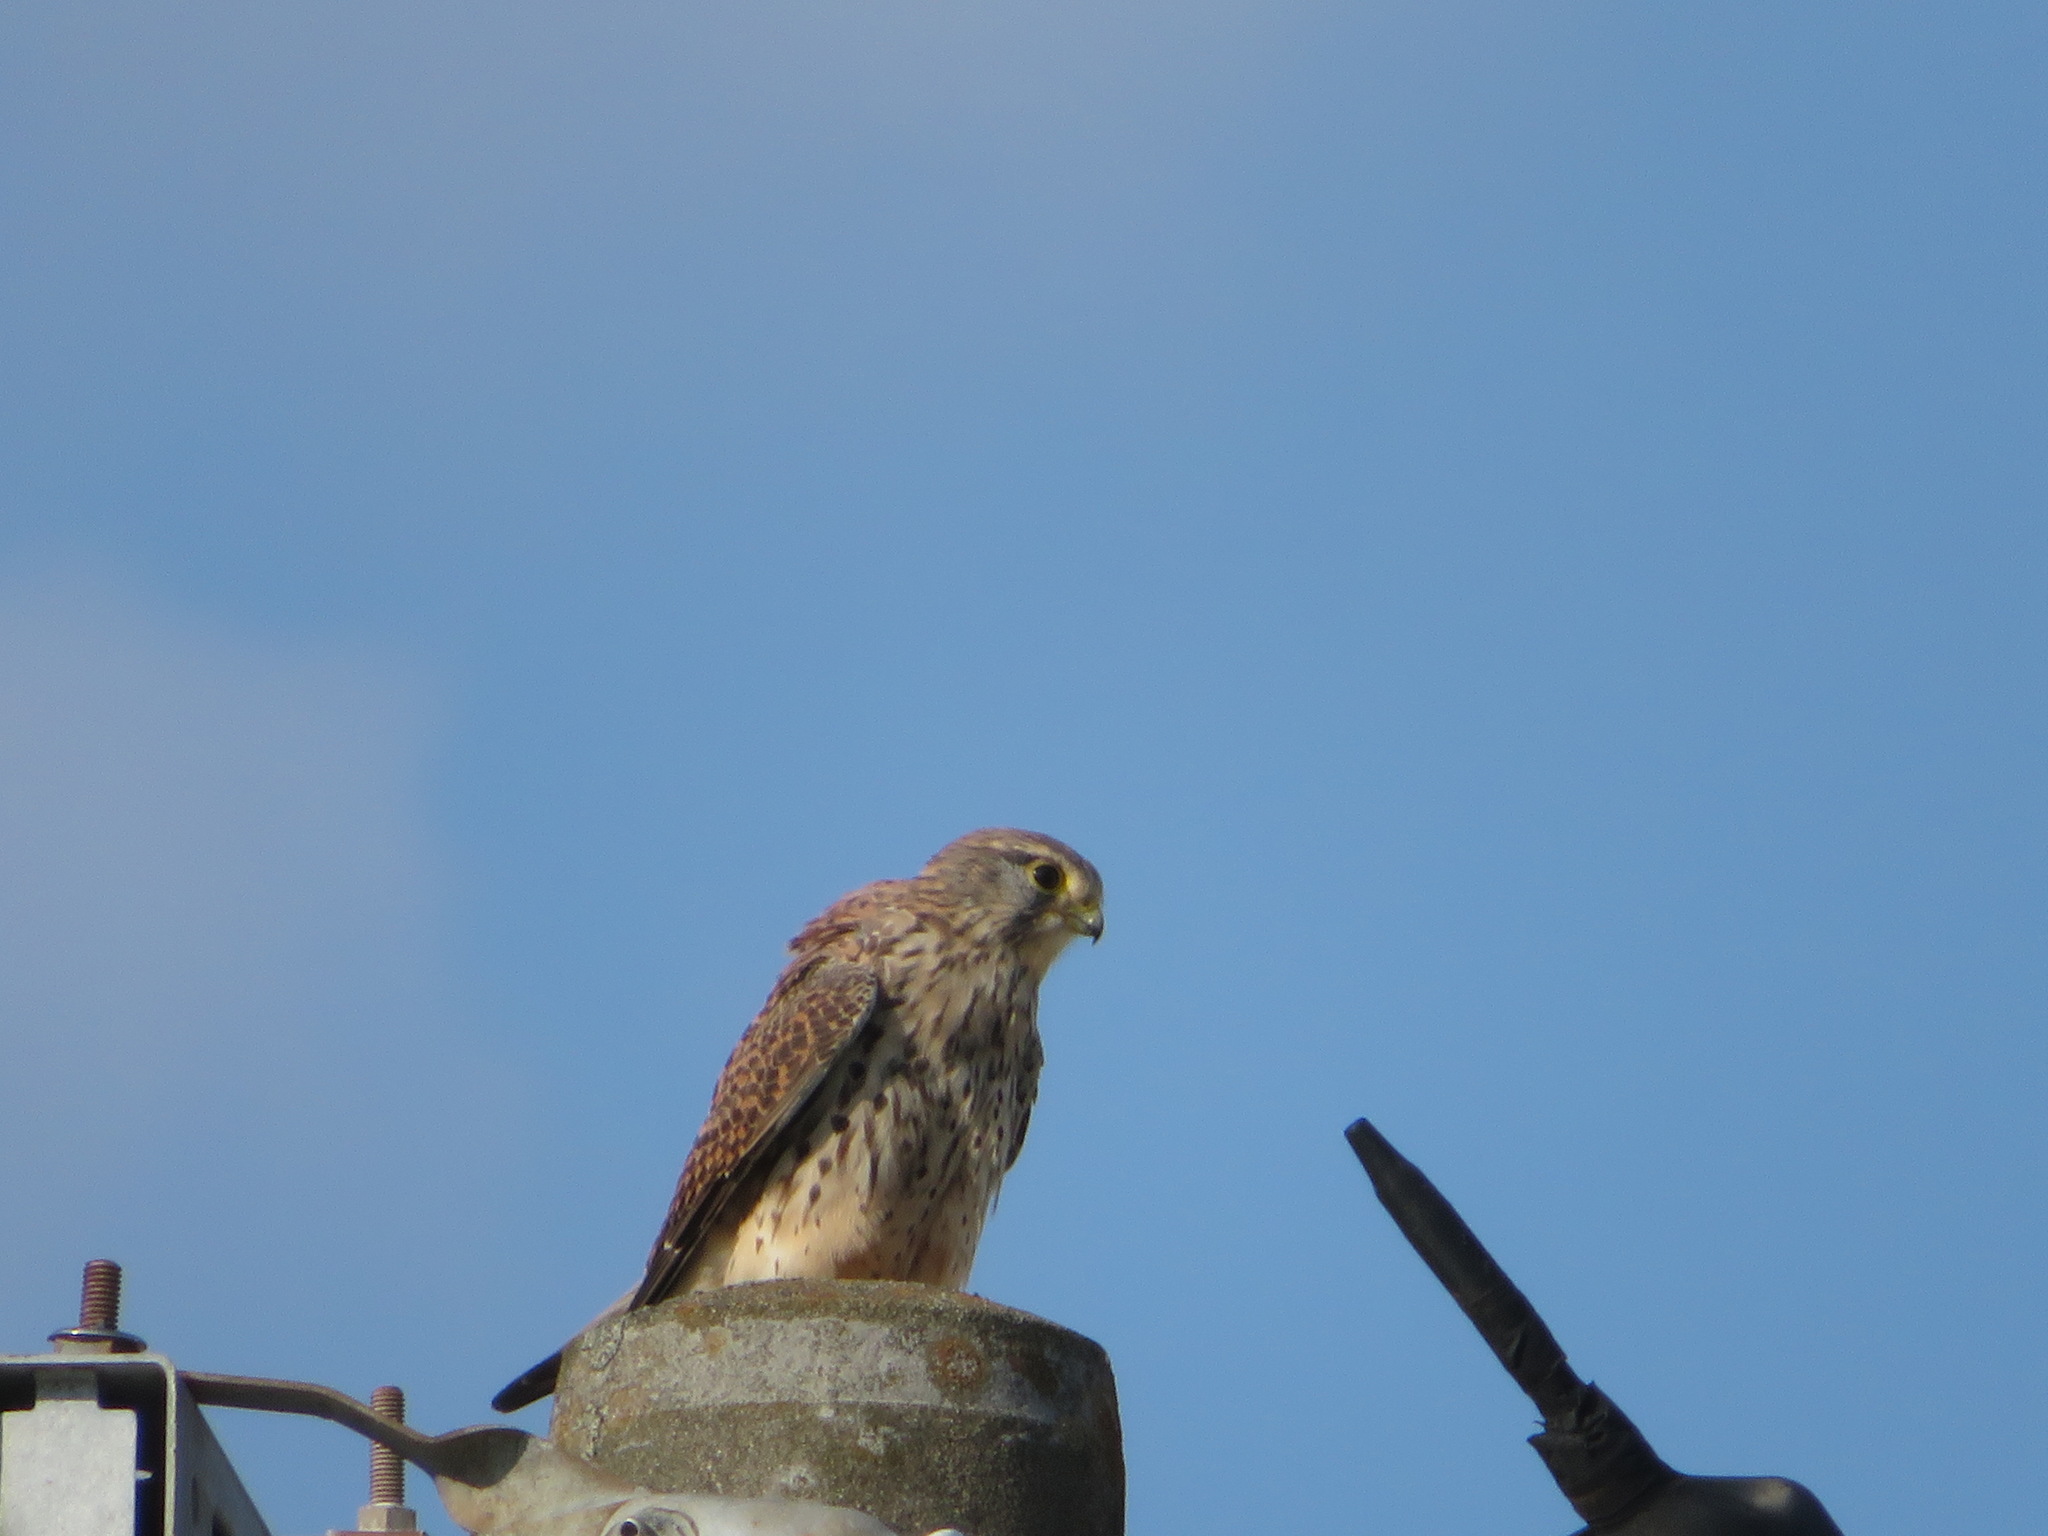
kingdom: Animalia
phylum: Chordata
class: Aves
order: Falconiformes
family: Falconidae
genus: Falco
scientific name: Falco tinnunculus
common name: Common kestrel
